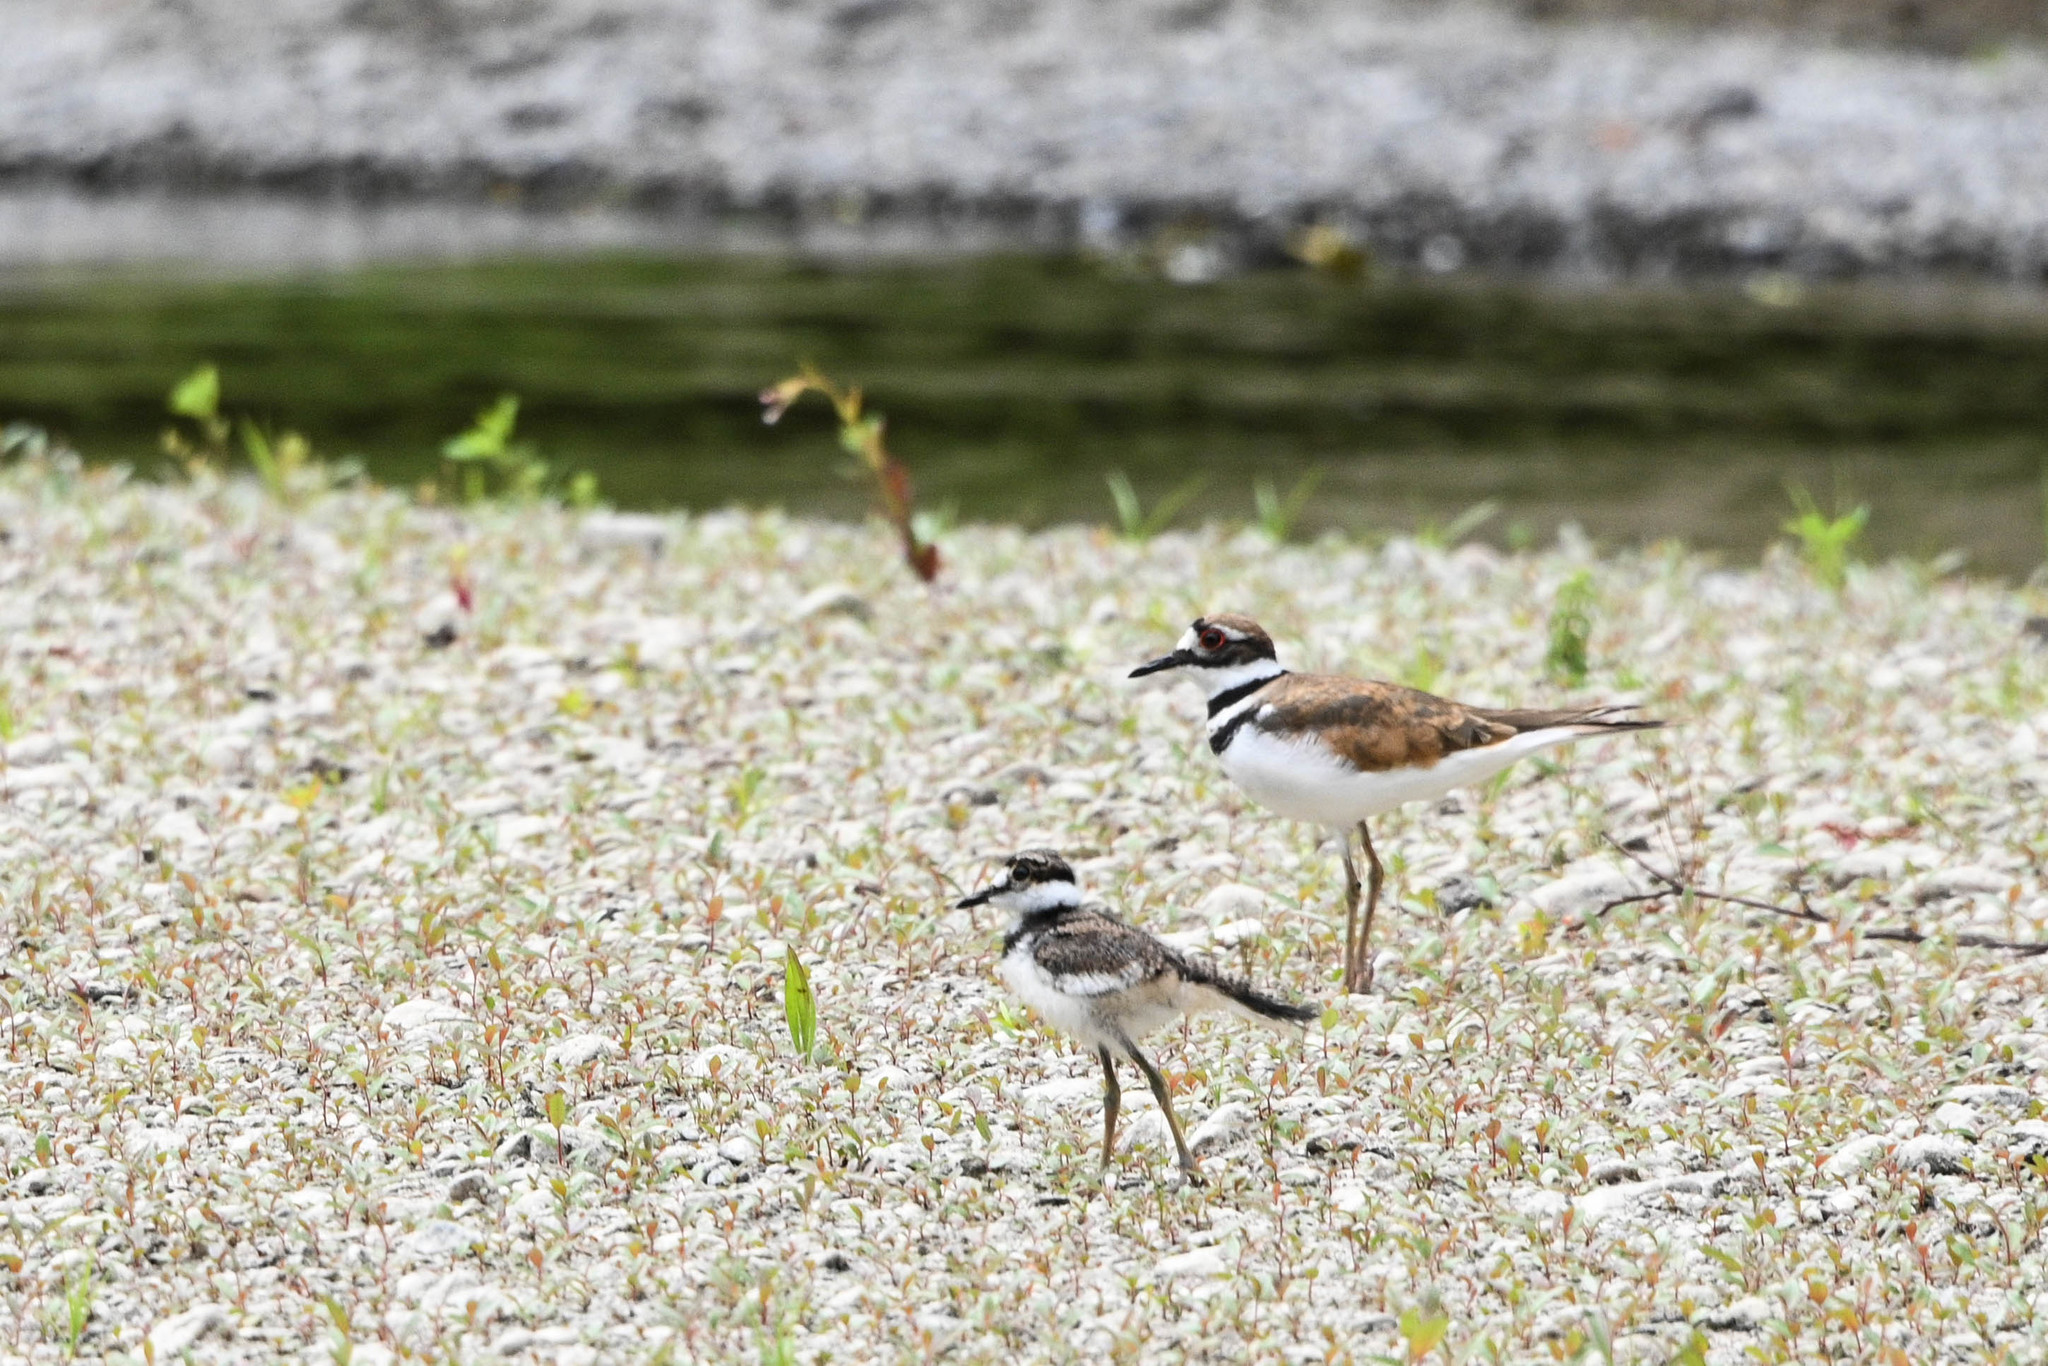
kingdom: Animalia
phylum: Chordata
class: Aves
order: Charadriiformes
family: Charadriidae
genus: Charadrius
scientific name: Charadrius vociferus
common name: Killdeer
